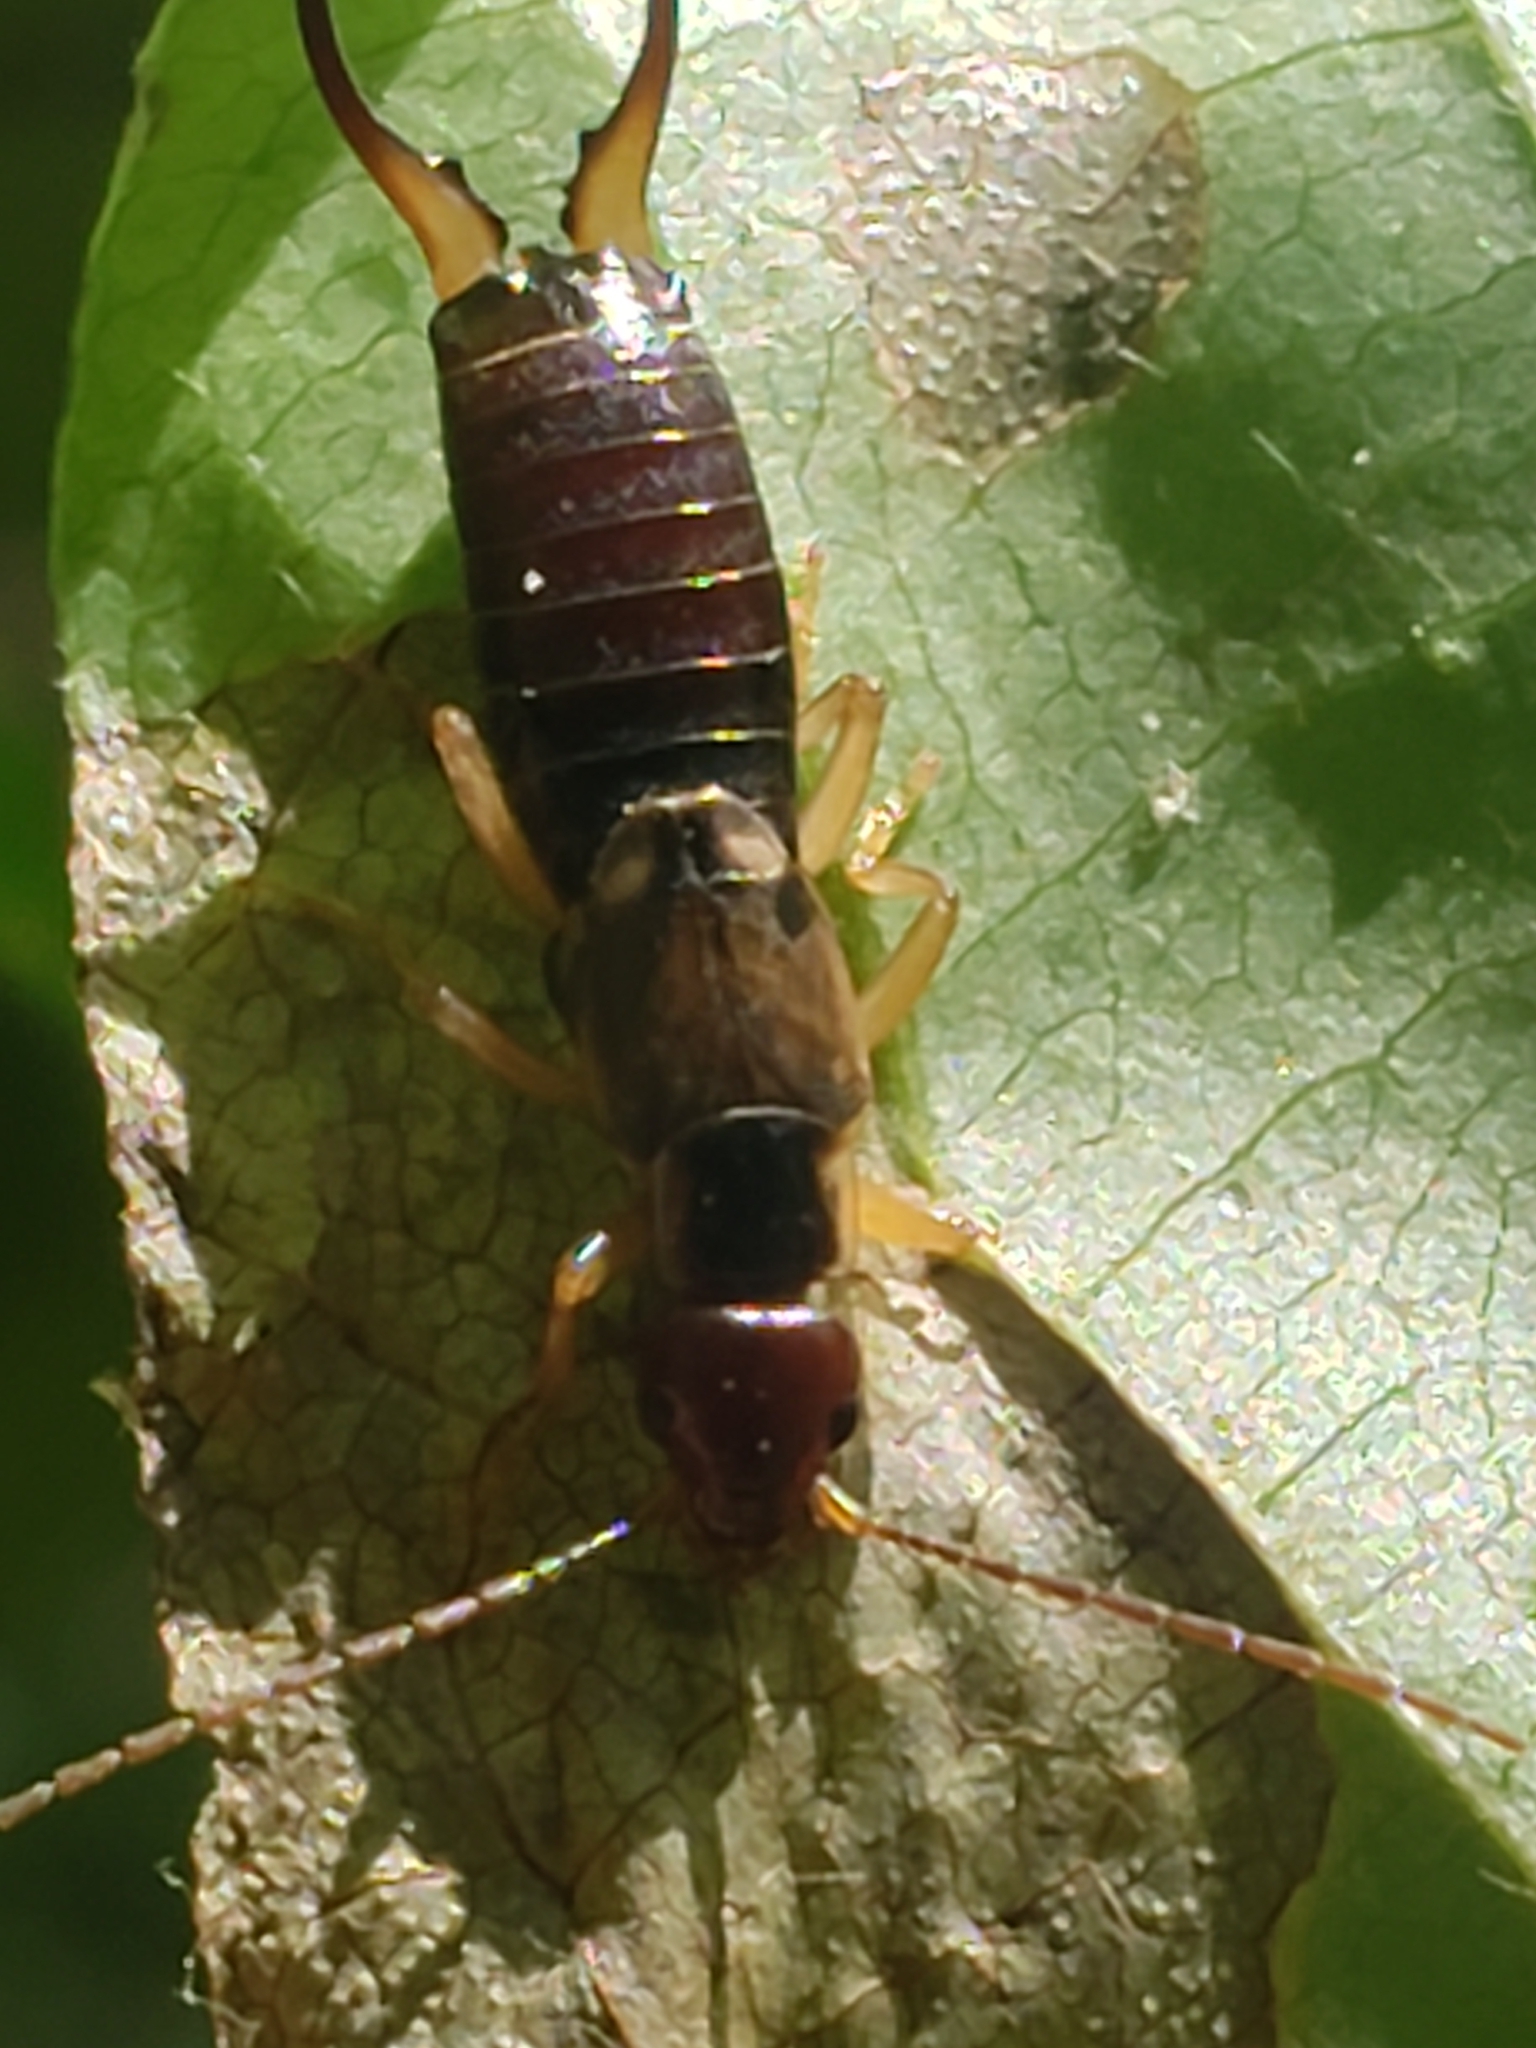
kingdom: Animalia
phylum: Arthropoda
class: Insecta
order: Dermaptera
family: Forficulidae
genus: Forficula
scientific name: Forficula
